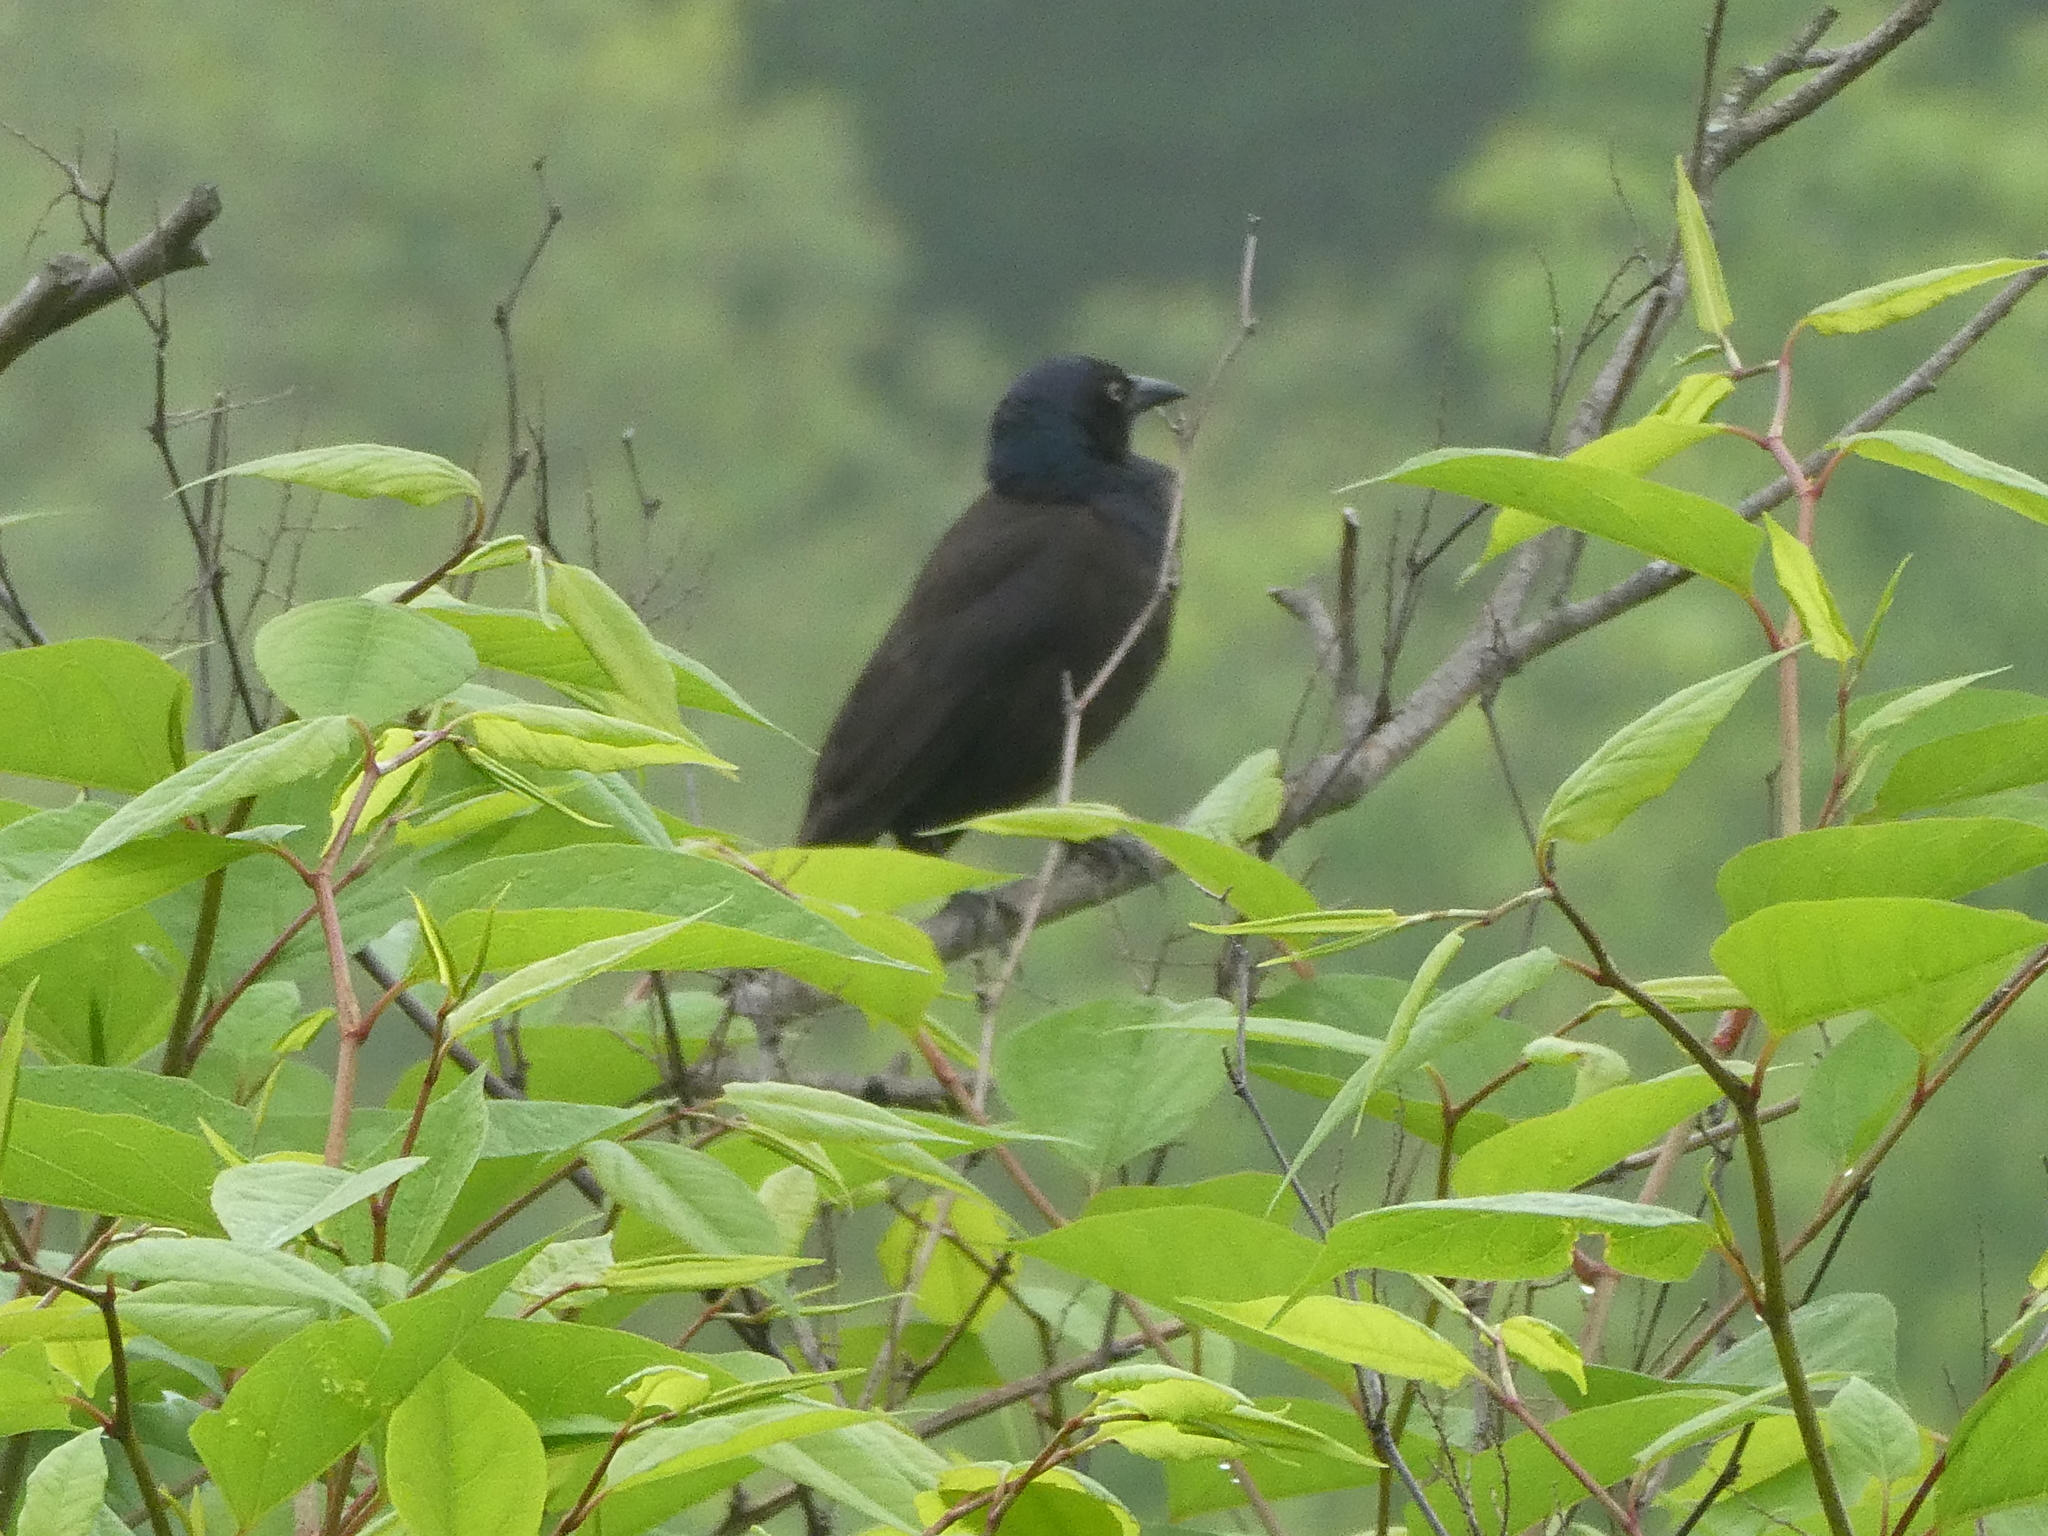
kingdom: Animalia
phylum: Chordata
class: Aves
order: Passeriformes
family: Icteridae
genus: Quiscalus
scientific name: Quiscalus quiscula
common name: Common grackle
